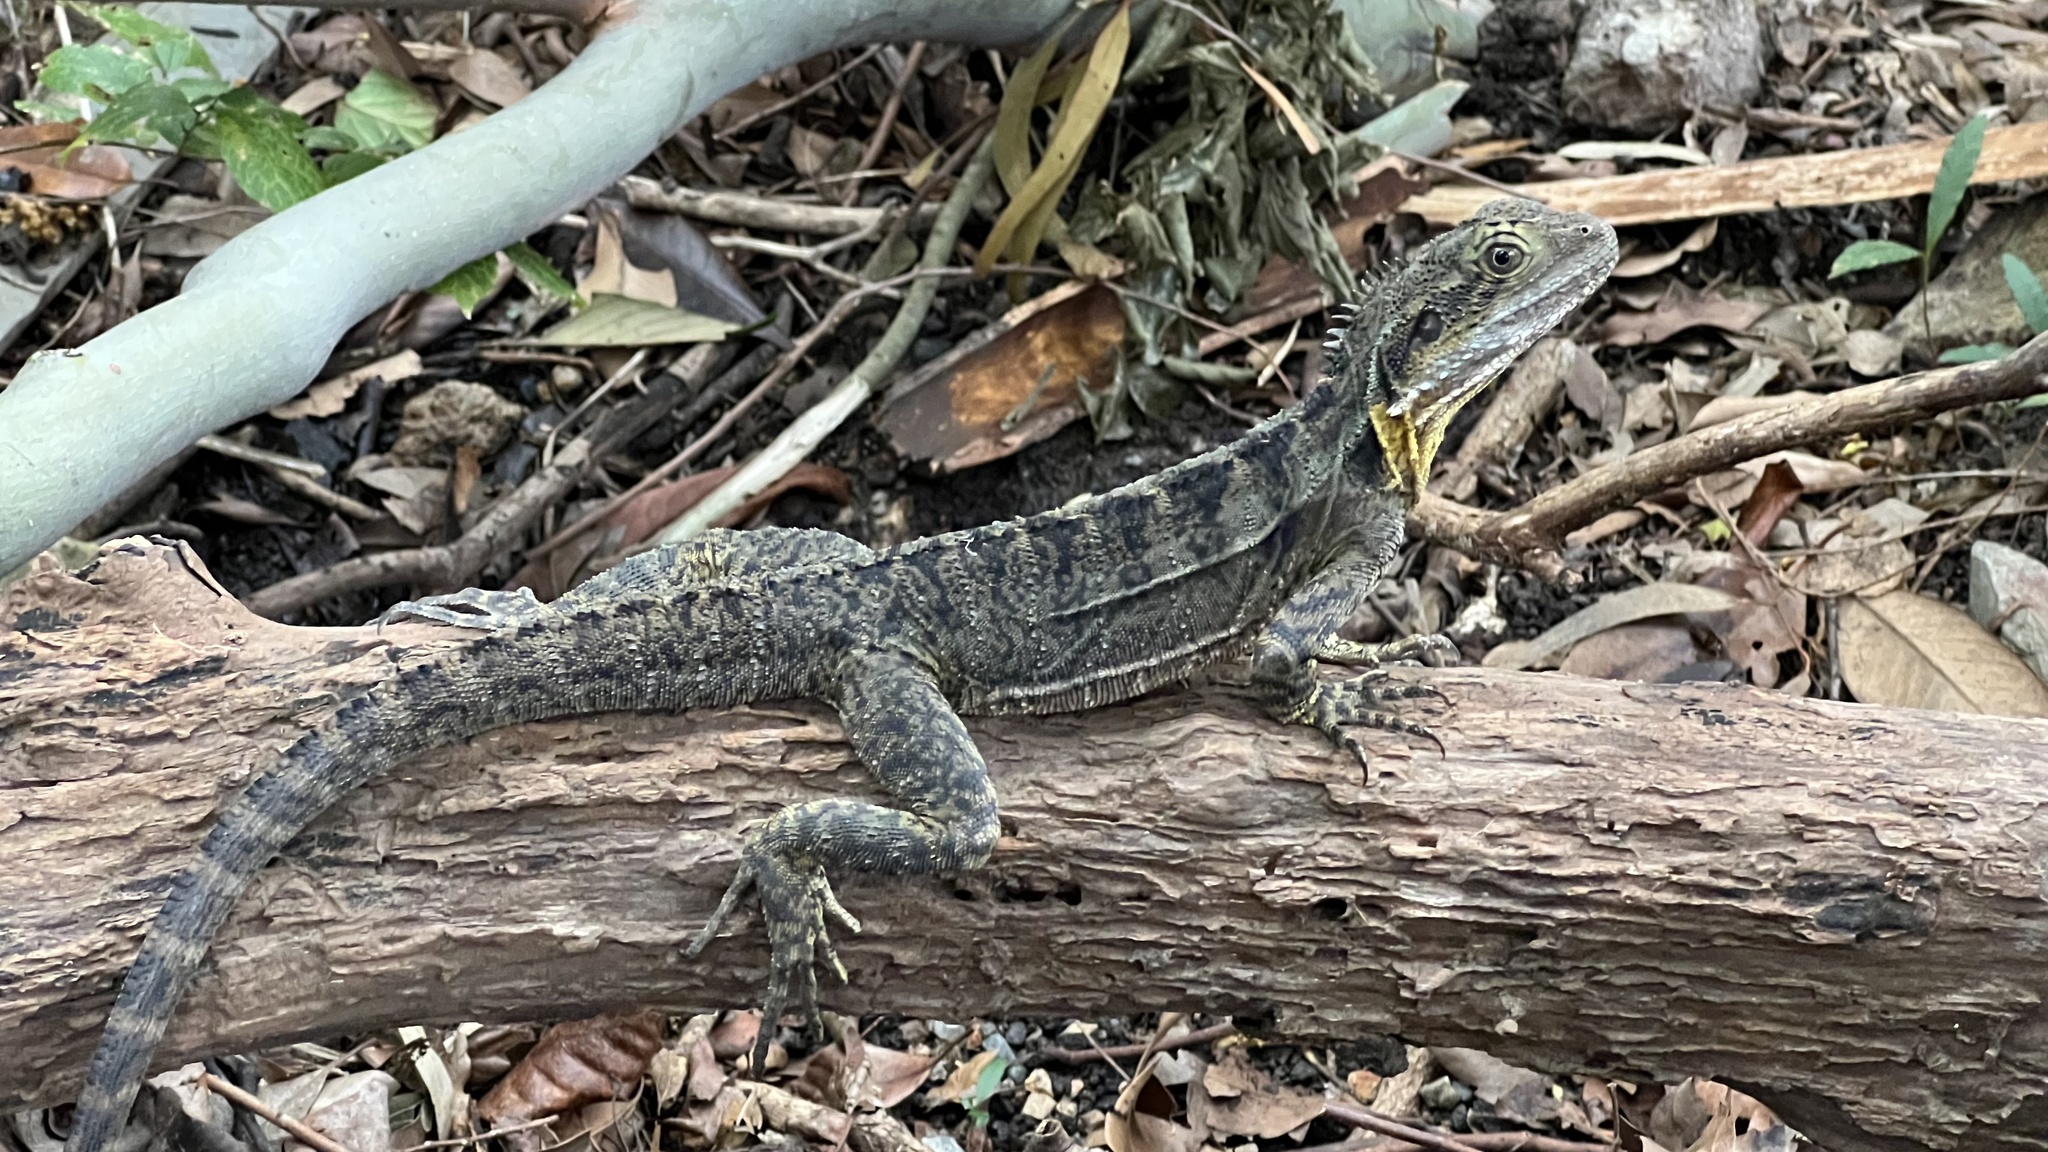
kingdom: Animalia
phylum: Chordata
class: Squamata
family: Agamidae
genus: Intellagama
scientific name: Intellagama lesueurii
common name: Eastern water dragon
